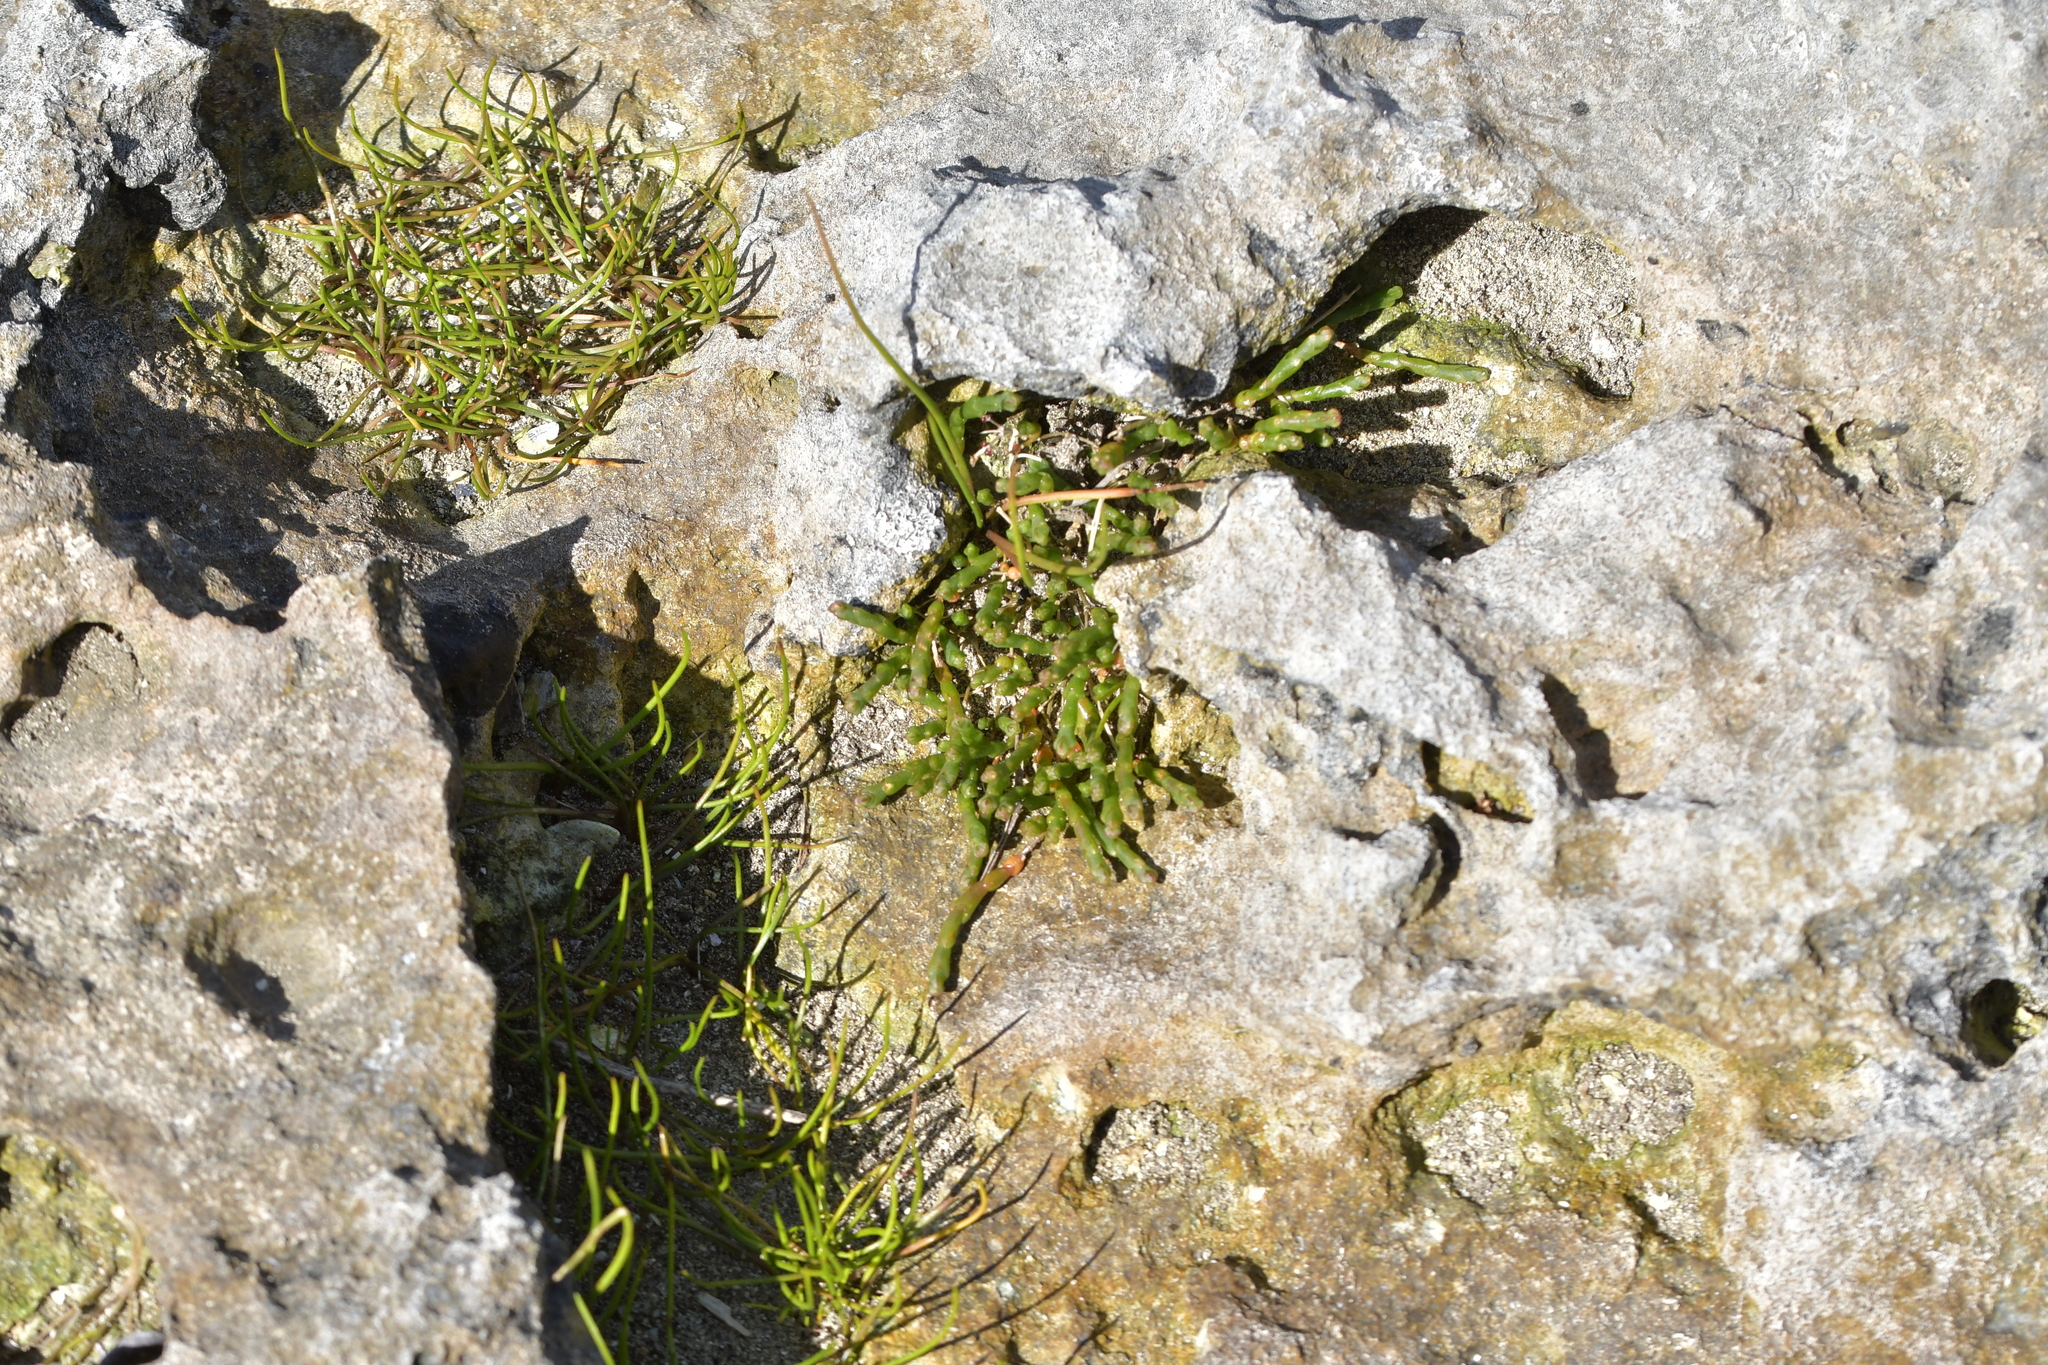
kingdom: Plantae
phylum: Tracheophyta
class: Magnoliopsida
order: Caryophyllales
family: Amaranthaceae
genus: Salicornia
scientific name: Salicornia quinqueflora
